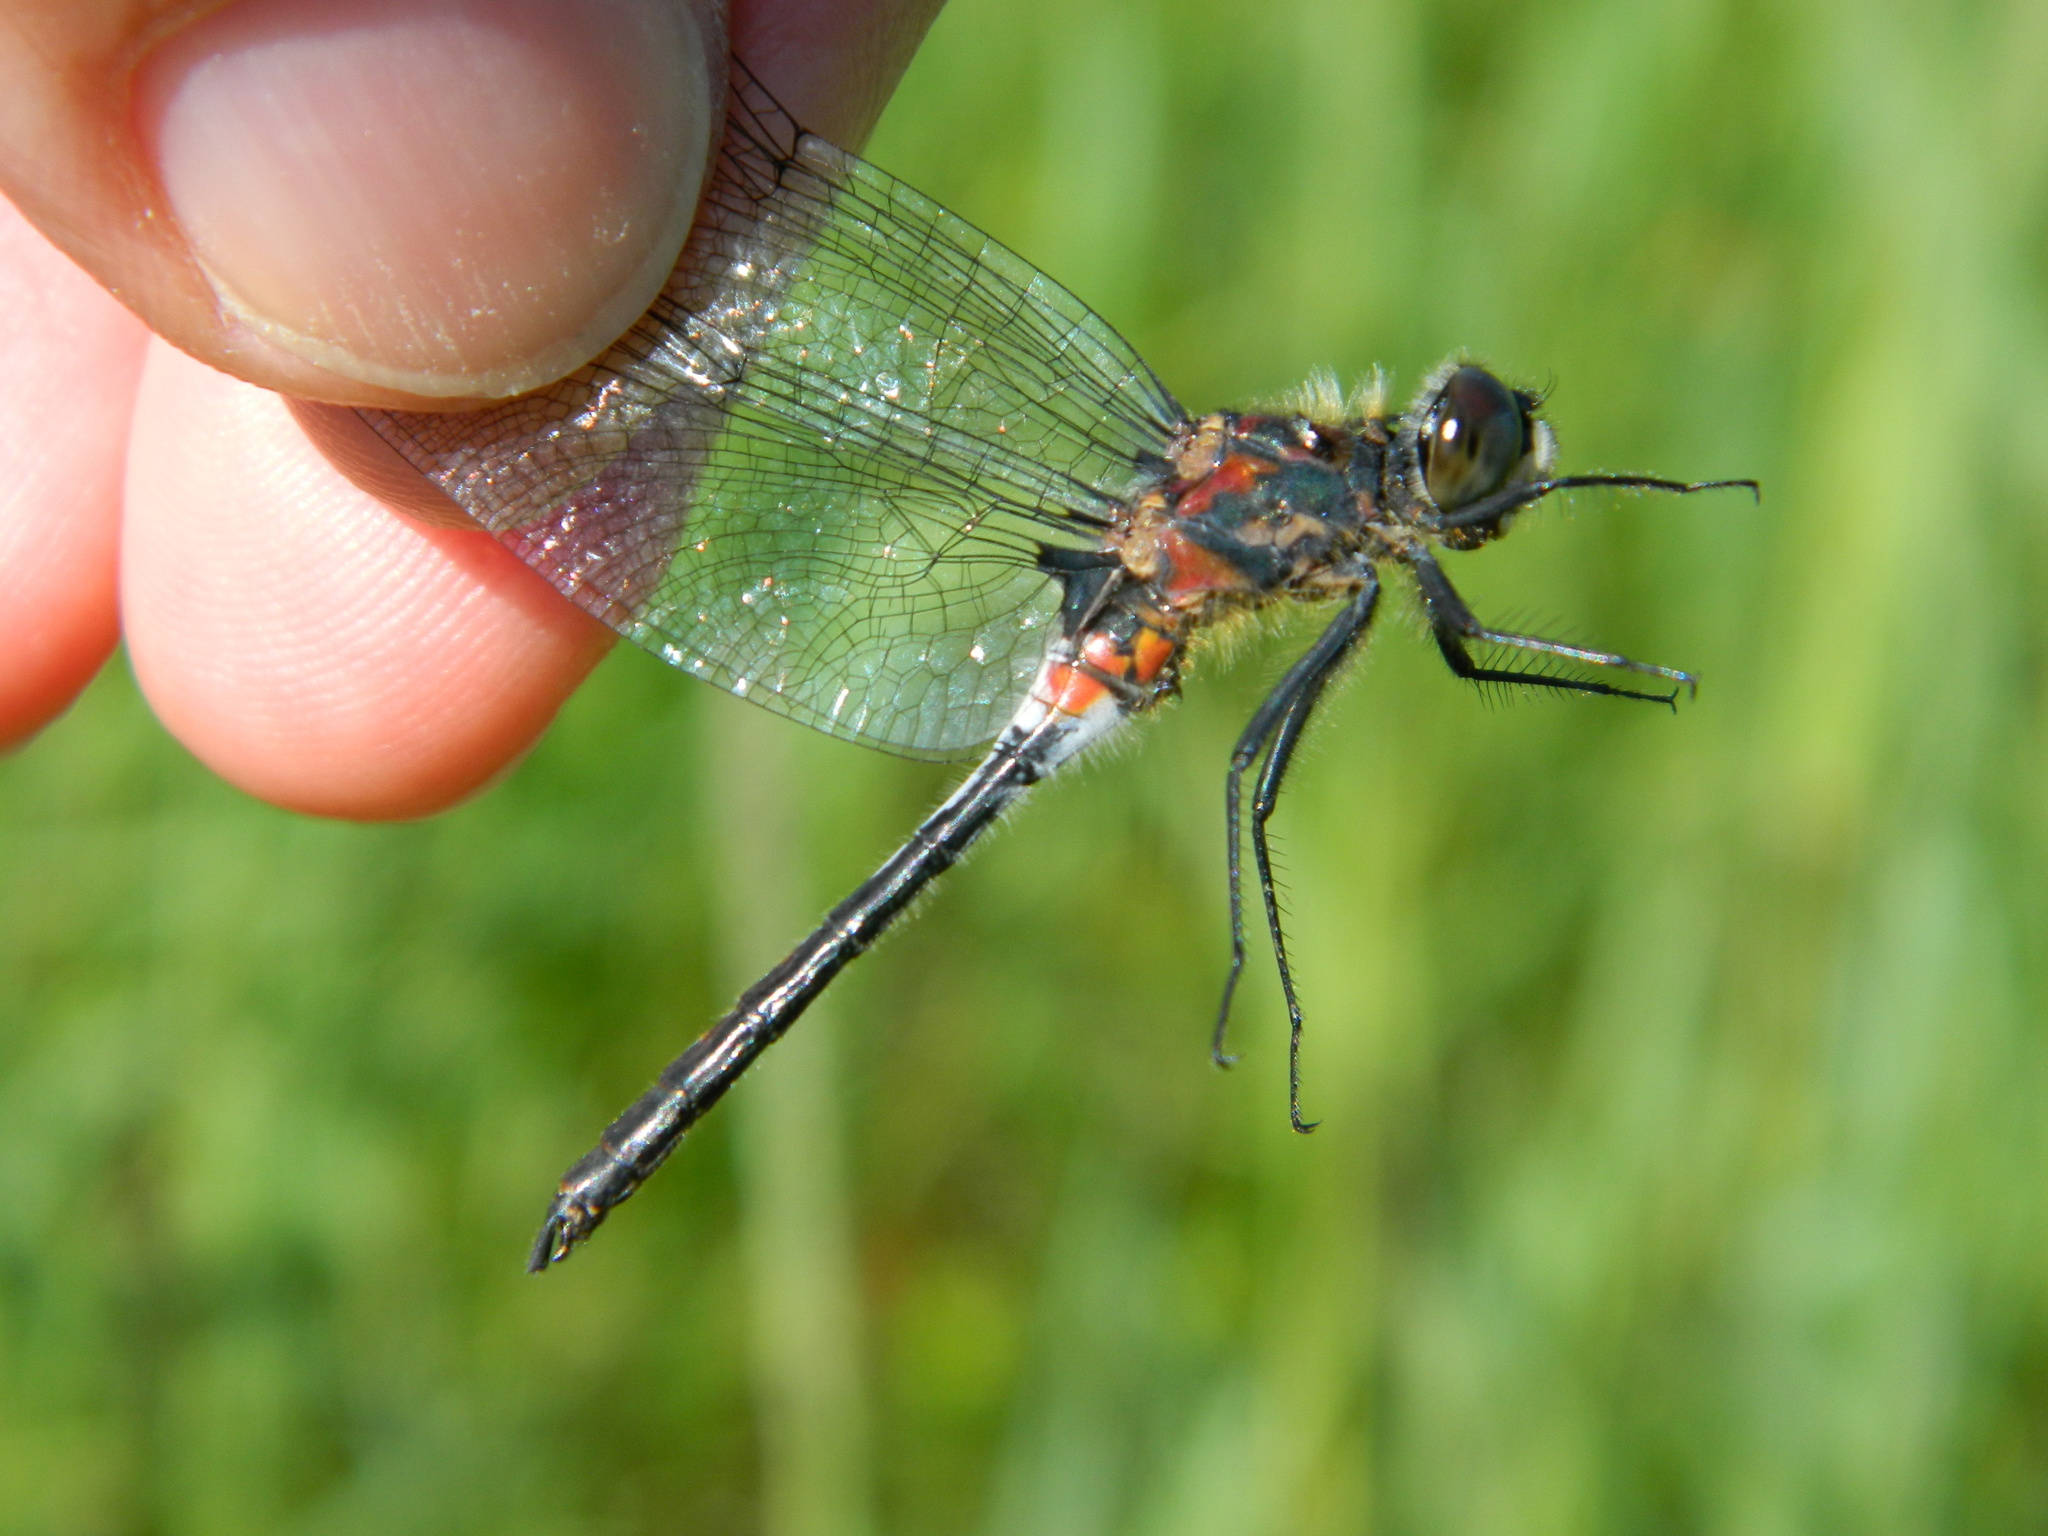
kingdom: Animalia
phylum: Arthropoda
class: Insecta
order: Odonata
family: Libellulidae
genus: Leucorrhinia
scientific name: Leucorrhinia proxima
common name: Belted whiteface
